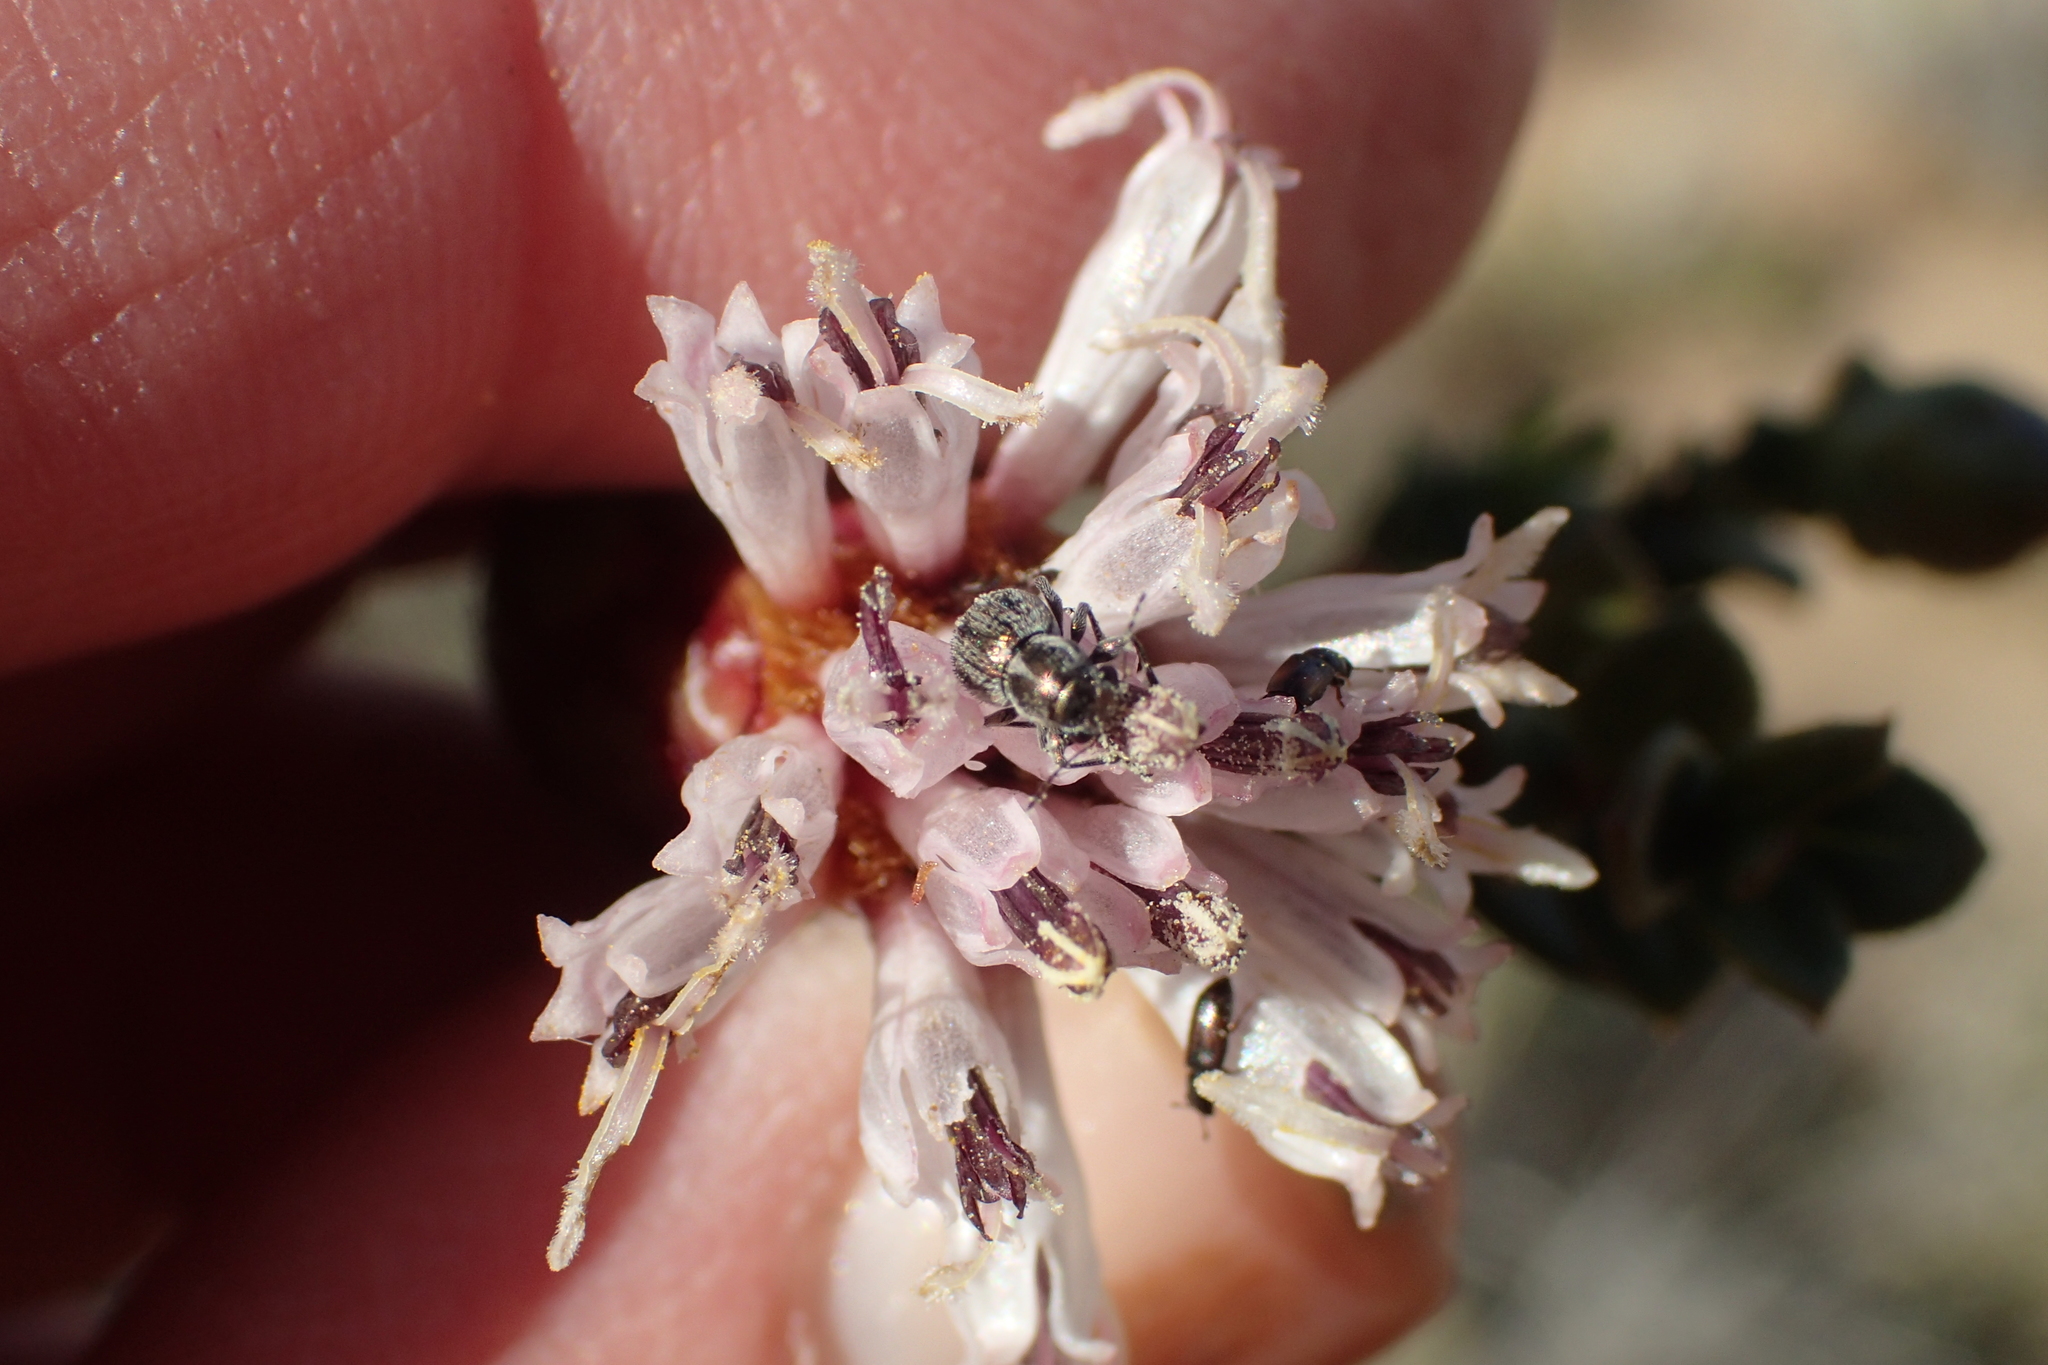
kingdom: Plantae
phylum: Tracheophyta
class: Magnoliopsida
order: Asterales
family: Asteraceae
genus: Pteronia
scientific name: Pteronia adenocarpa
